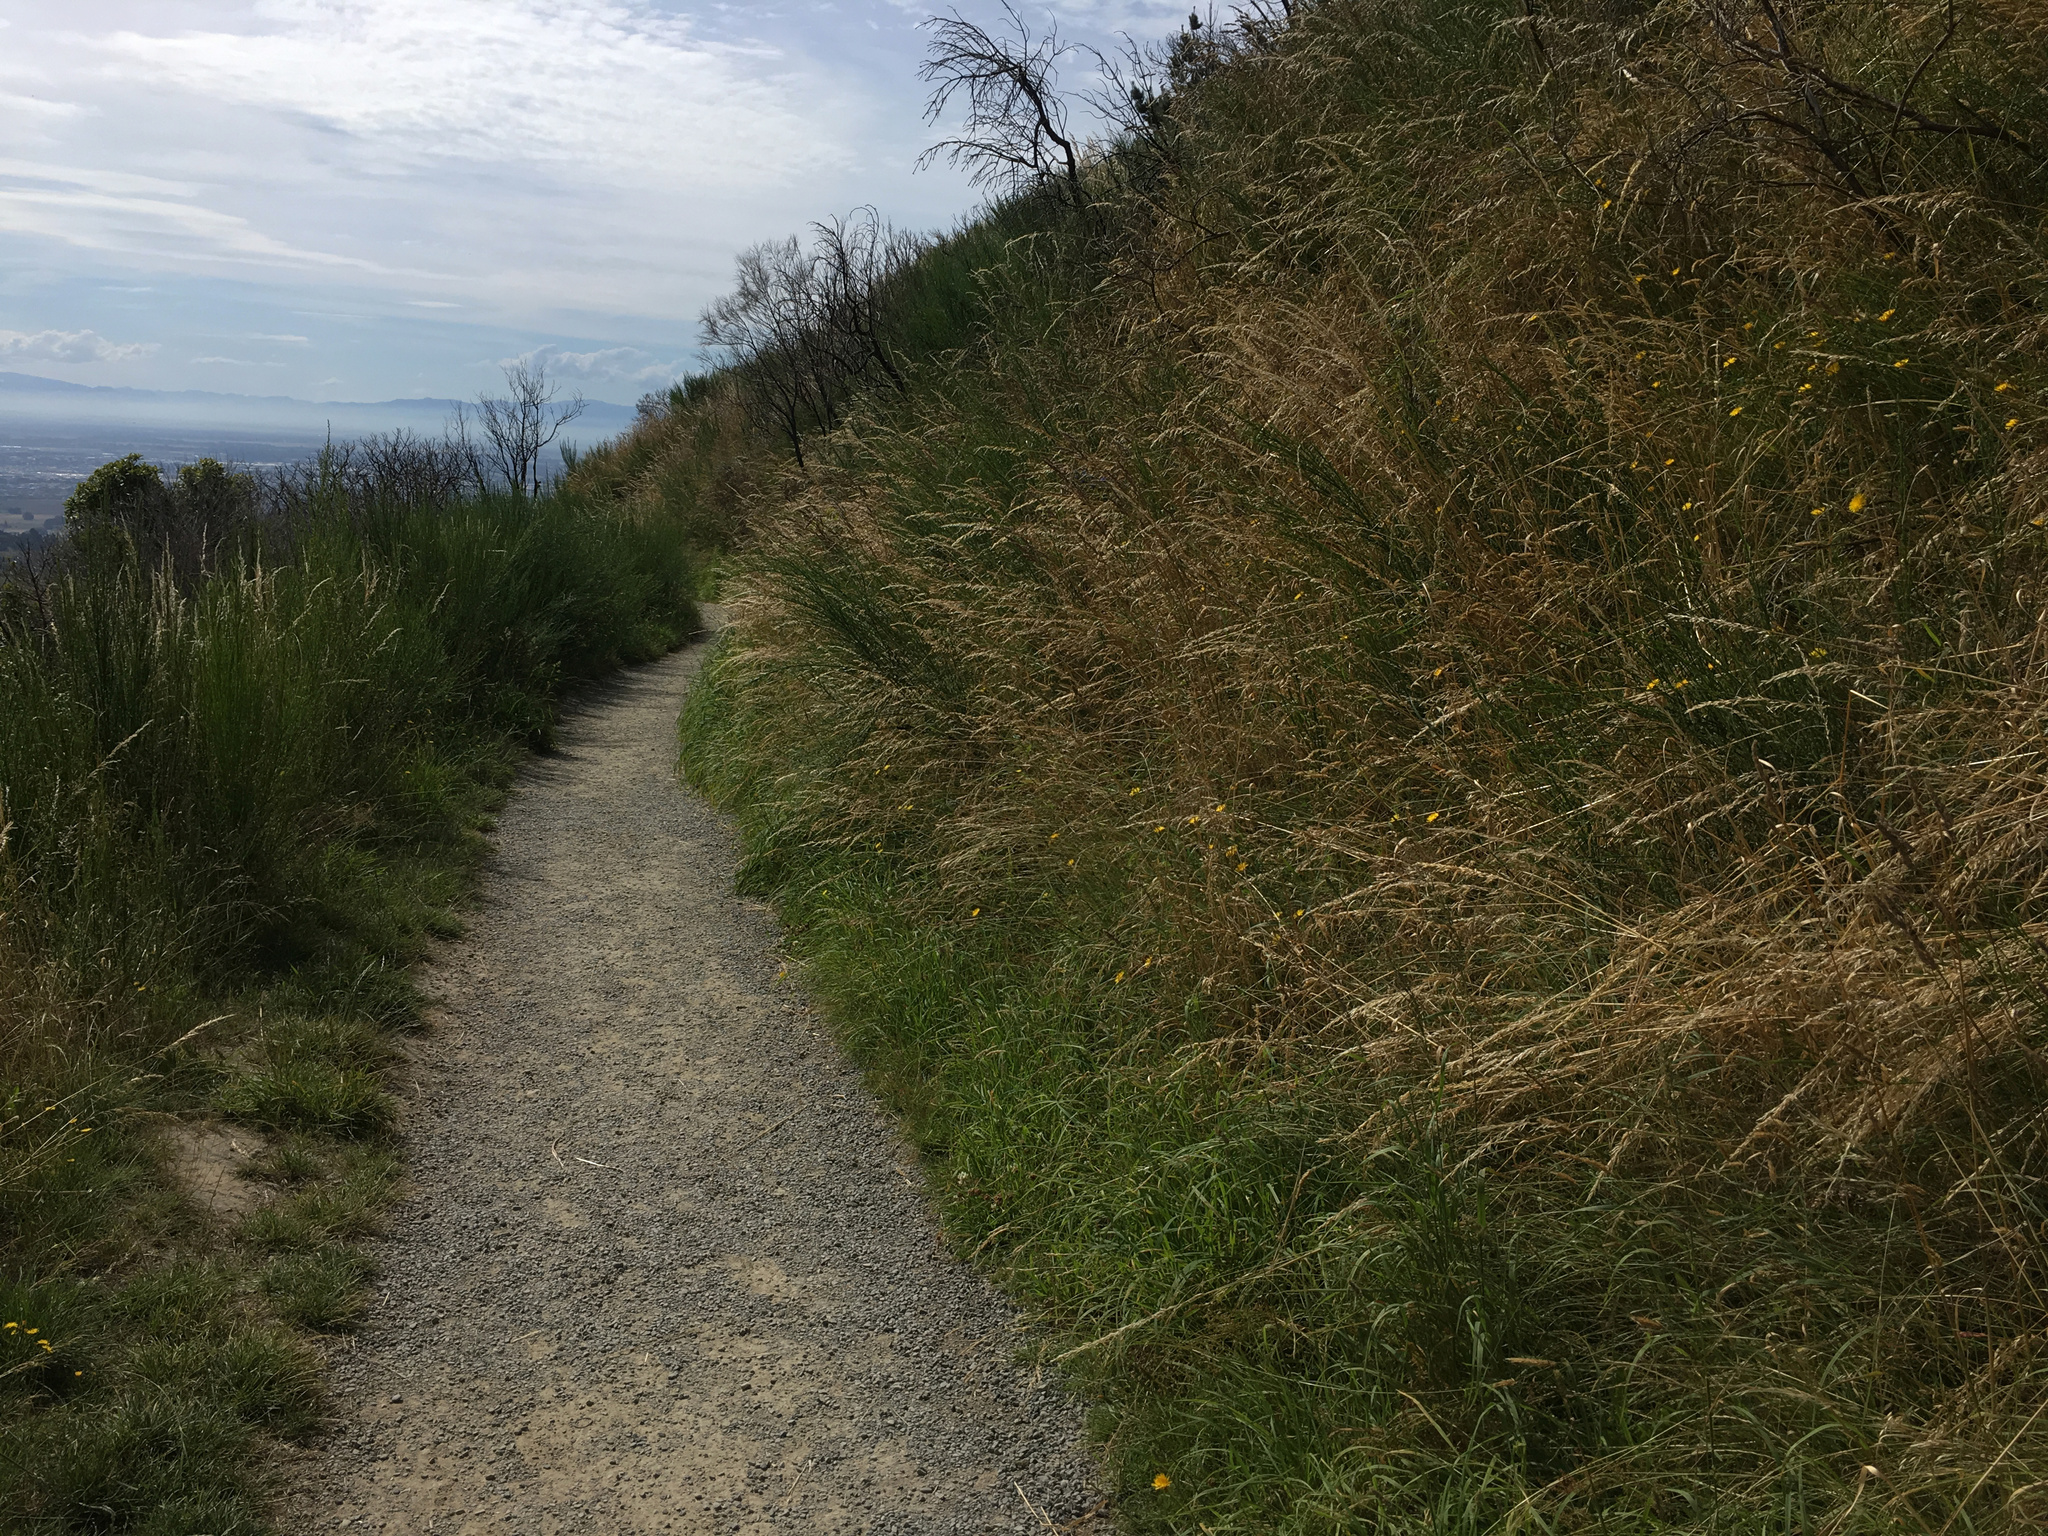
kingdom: Plantae
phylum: Tracheophyta
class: Magnoliopsida
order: Fabales
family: Fabaceae
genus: Cytisus
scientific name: Cytisus scoparius
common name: Scotch broom
